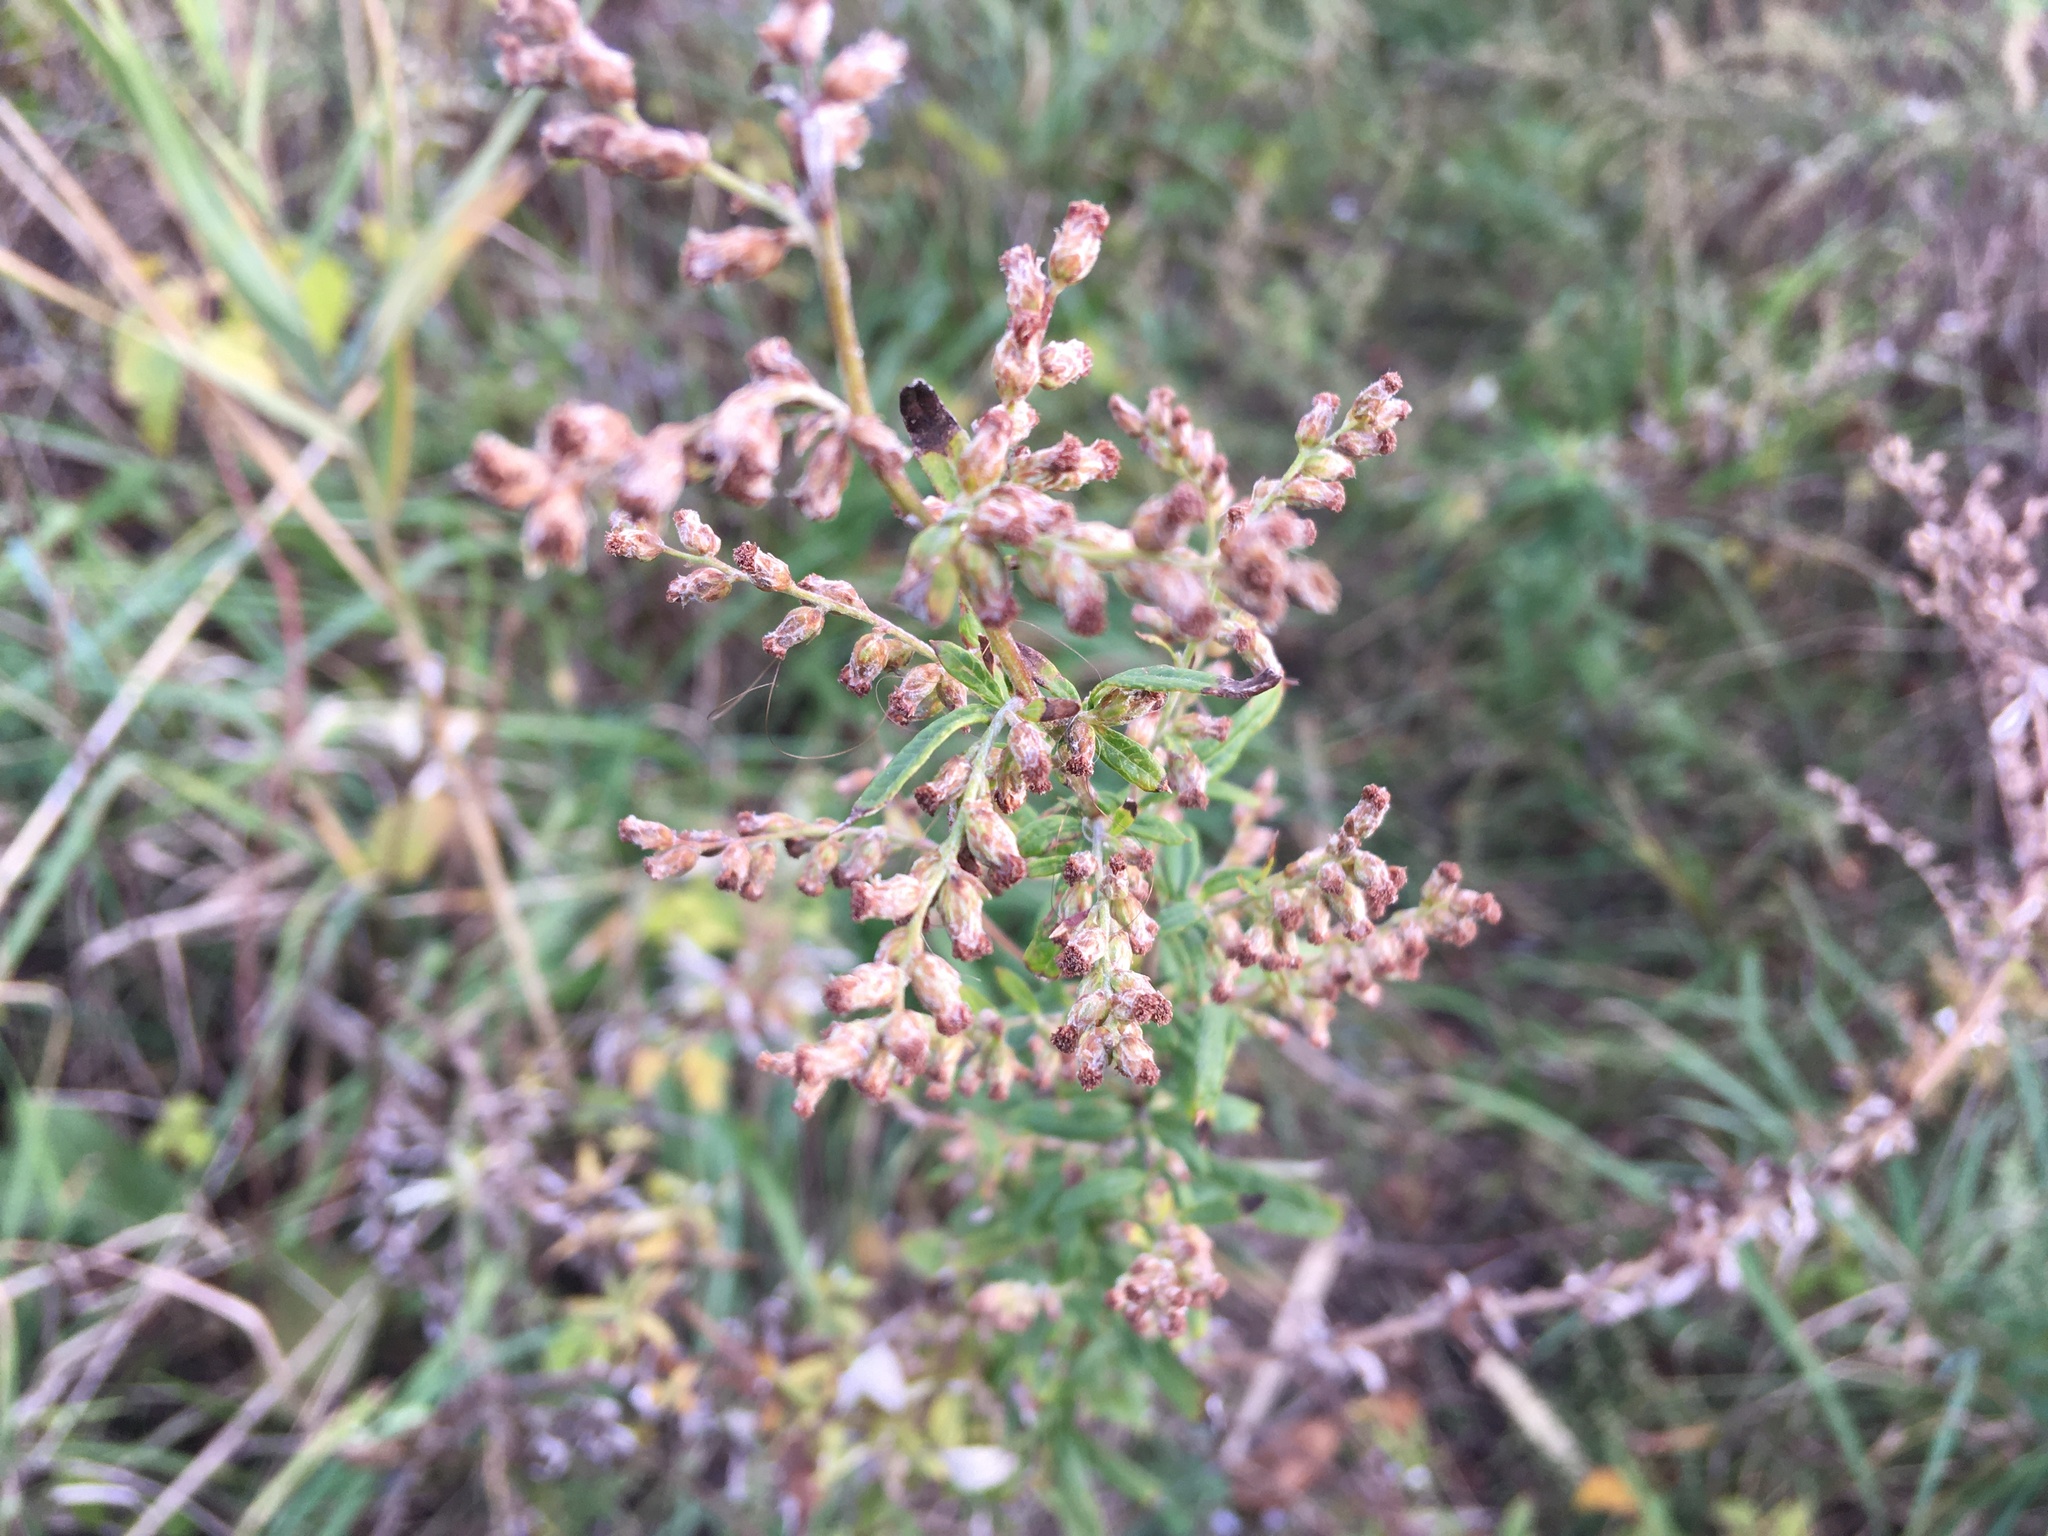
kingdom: Plantae
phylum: Tracheophyta
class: Magnoliopsida
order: Asterales
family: Asteraceae
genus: Artemisia
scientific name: Artemisia vulgaris
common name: Mugwort
